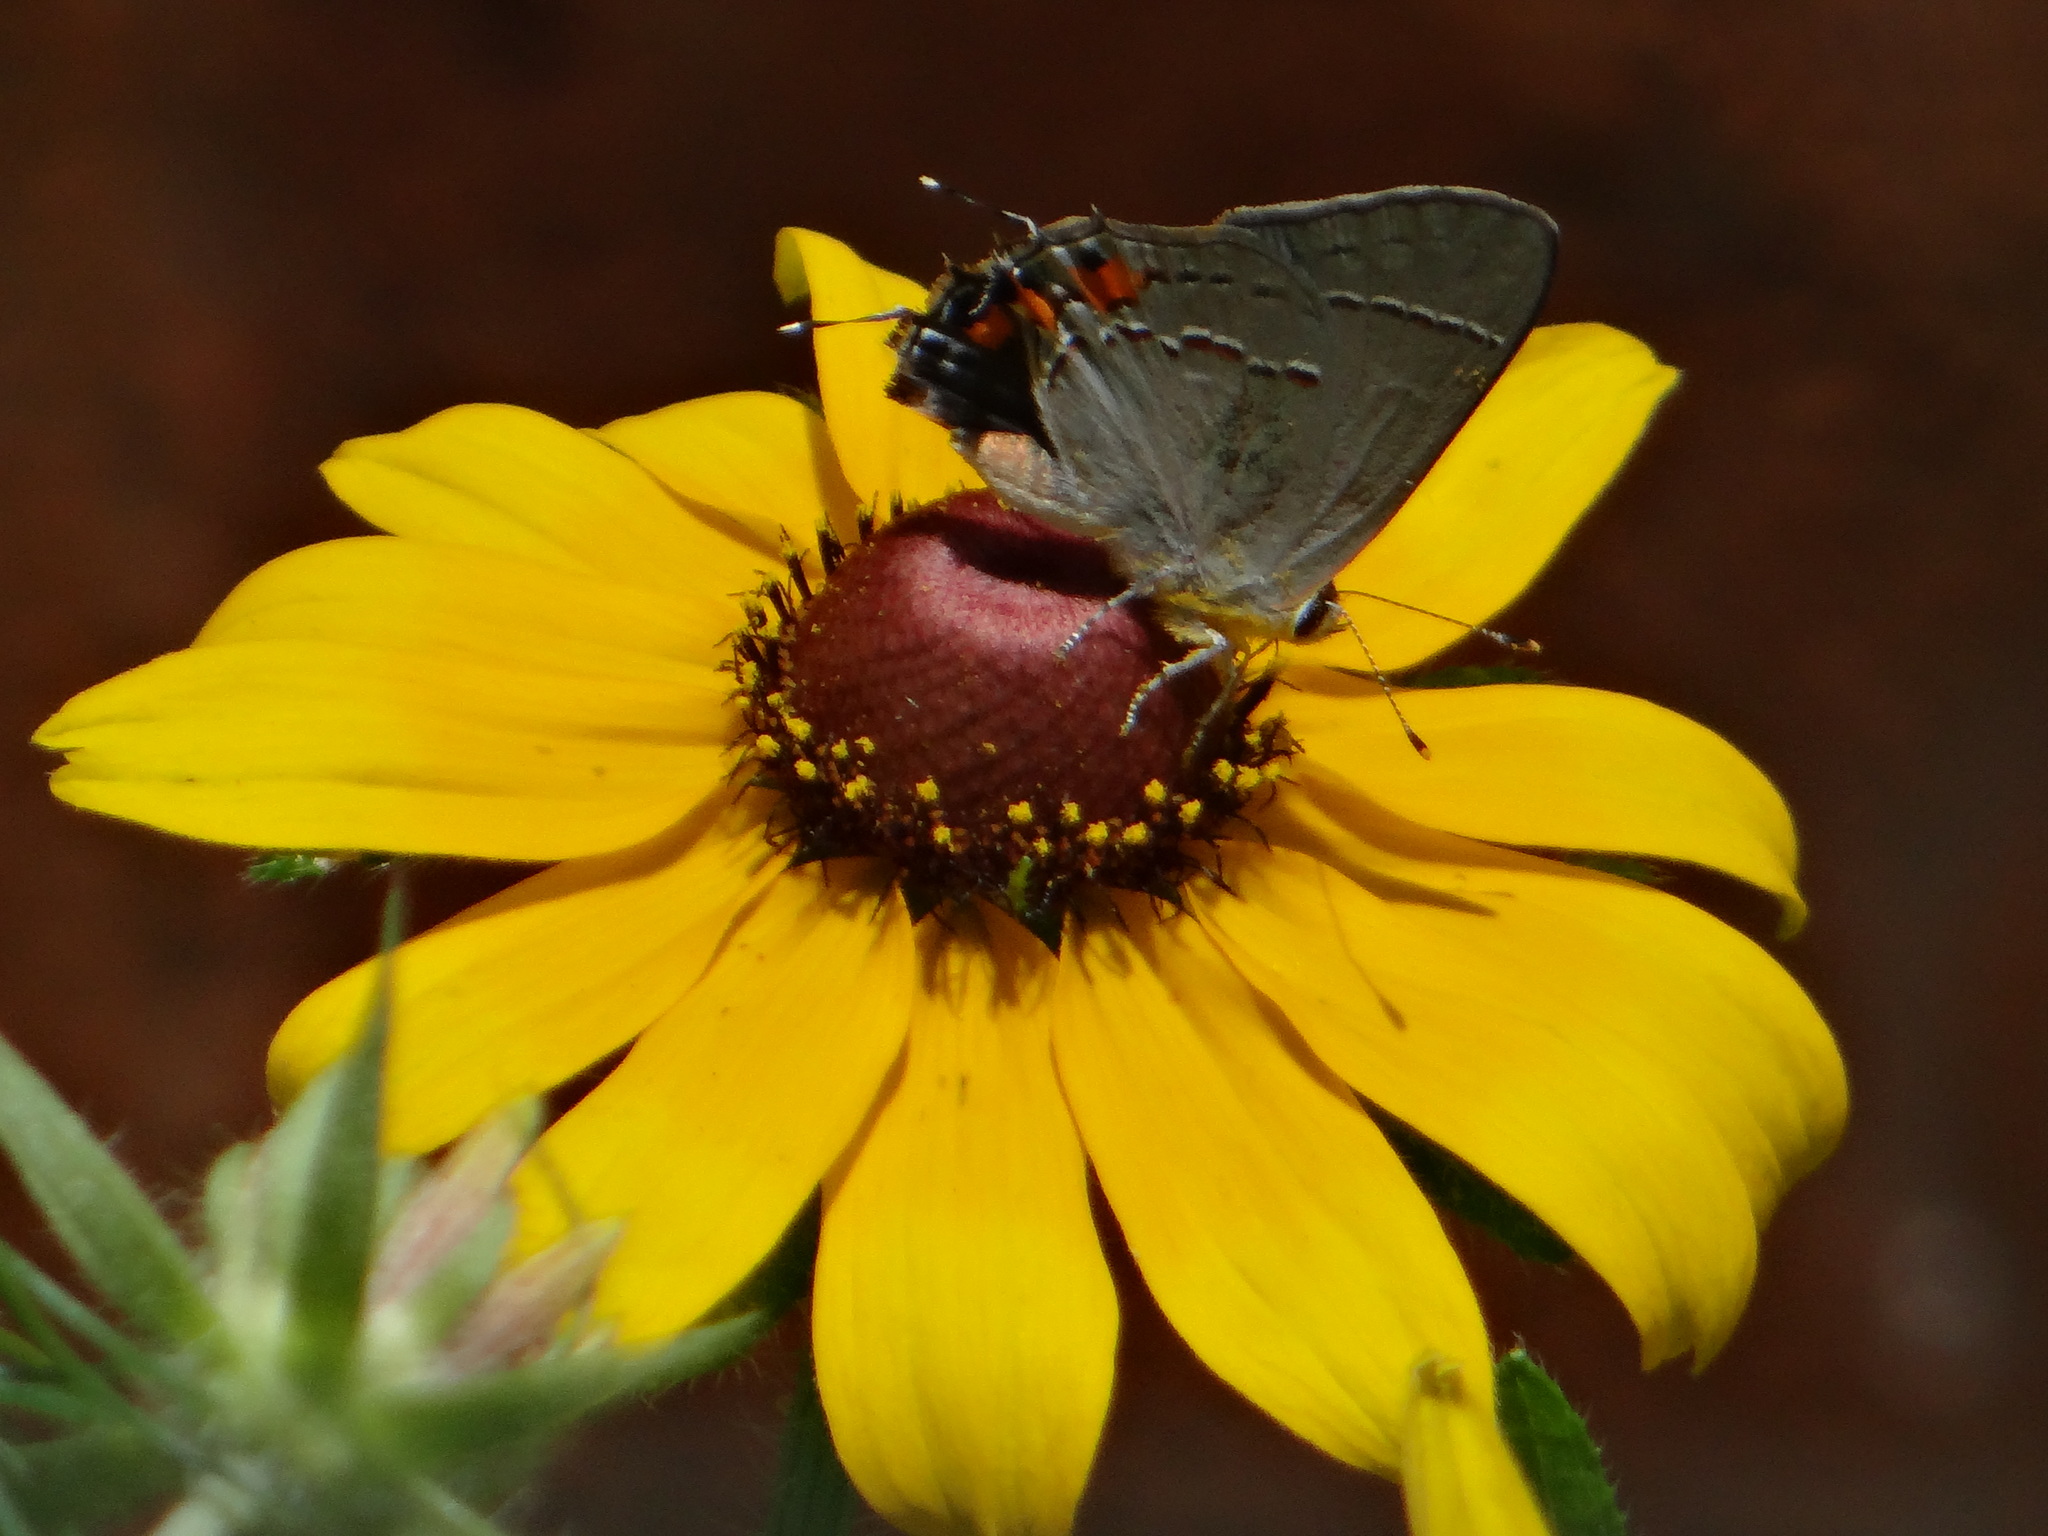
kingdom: Animalia
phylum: Arthropoda
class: Insecta
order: Lepidoptera
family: Lycaenidae
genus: Strymon
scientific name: Strymon melinus
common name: Gray hairstreak
